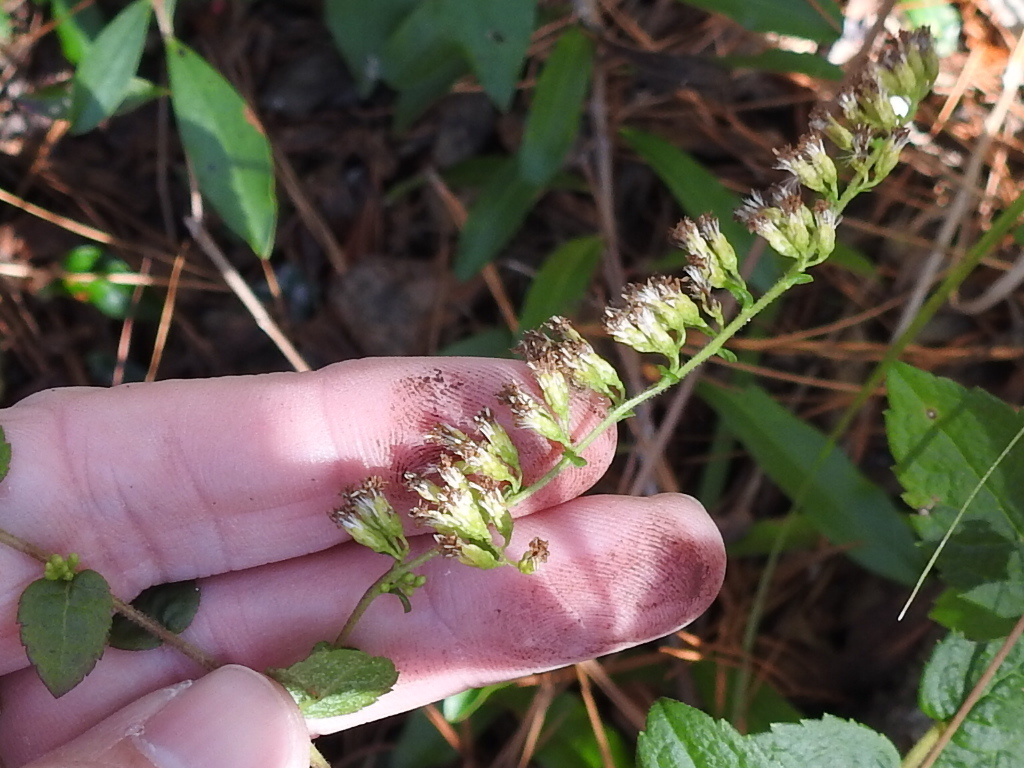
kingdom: Plantae
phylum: Tracheophyta
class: Magnoliopsida
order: Asterales
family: Asteraceae
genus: Solidago
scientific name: Solidago rugosa
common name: Rough-stemmed goldenrod
